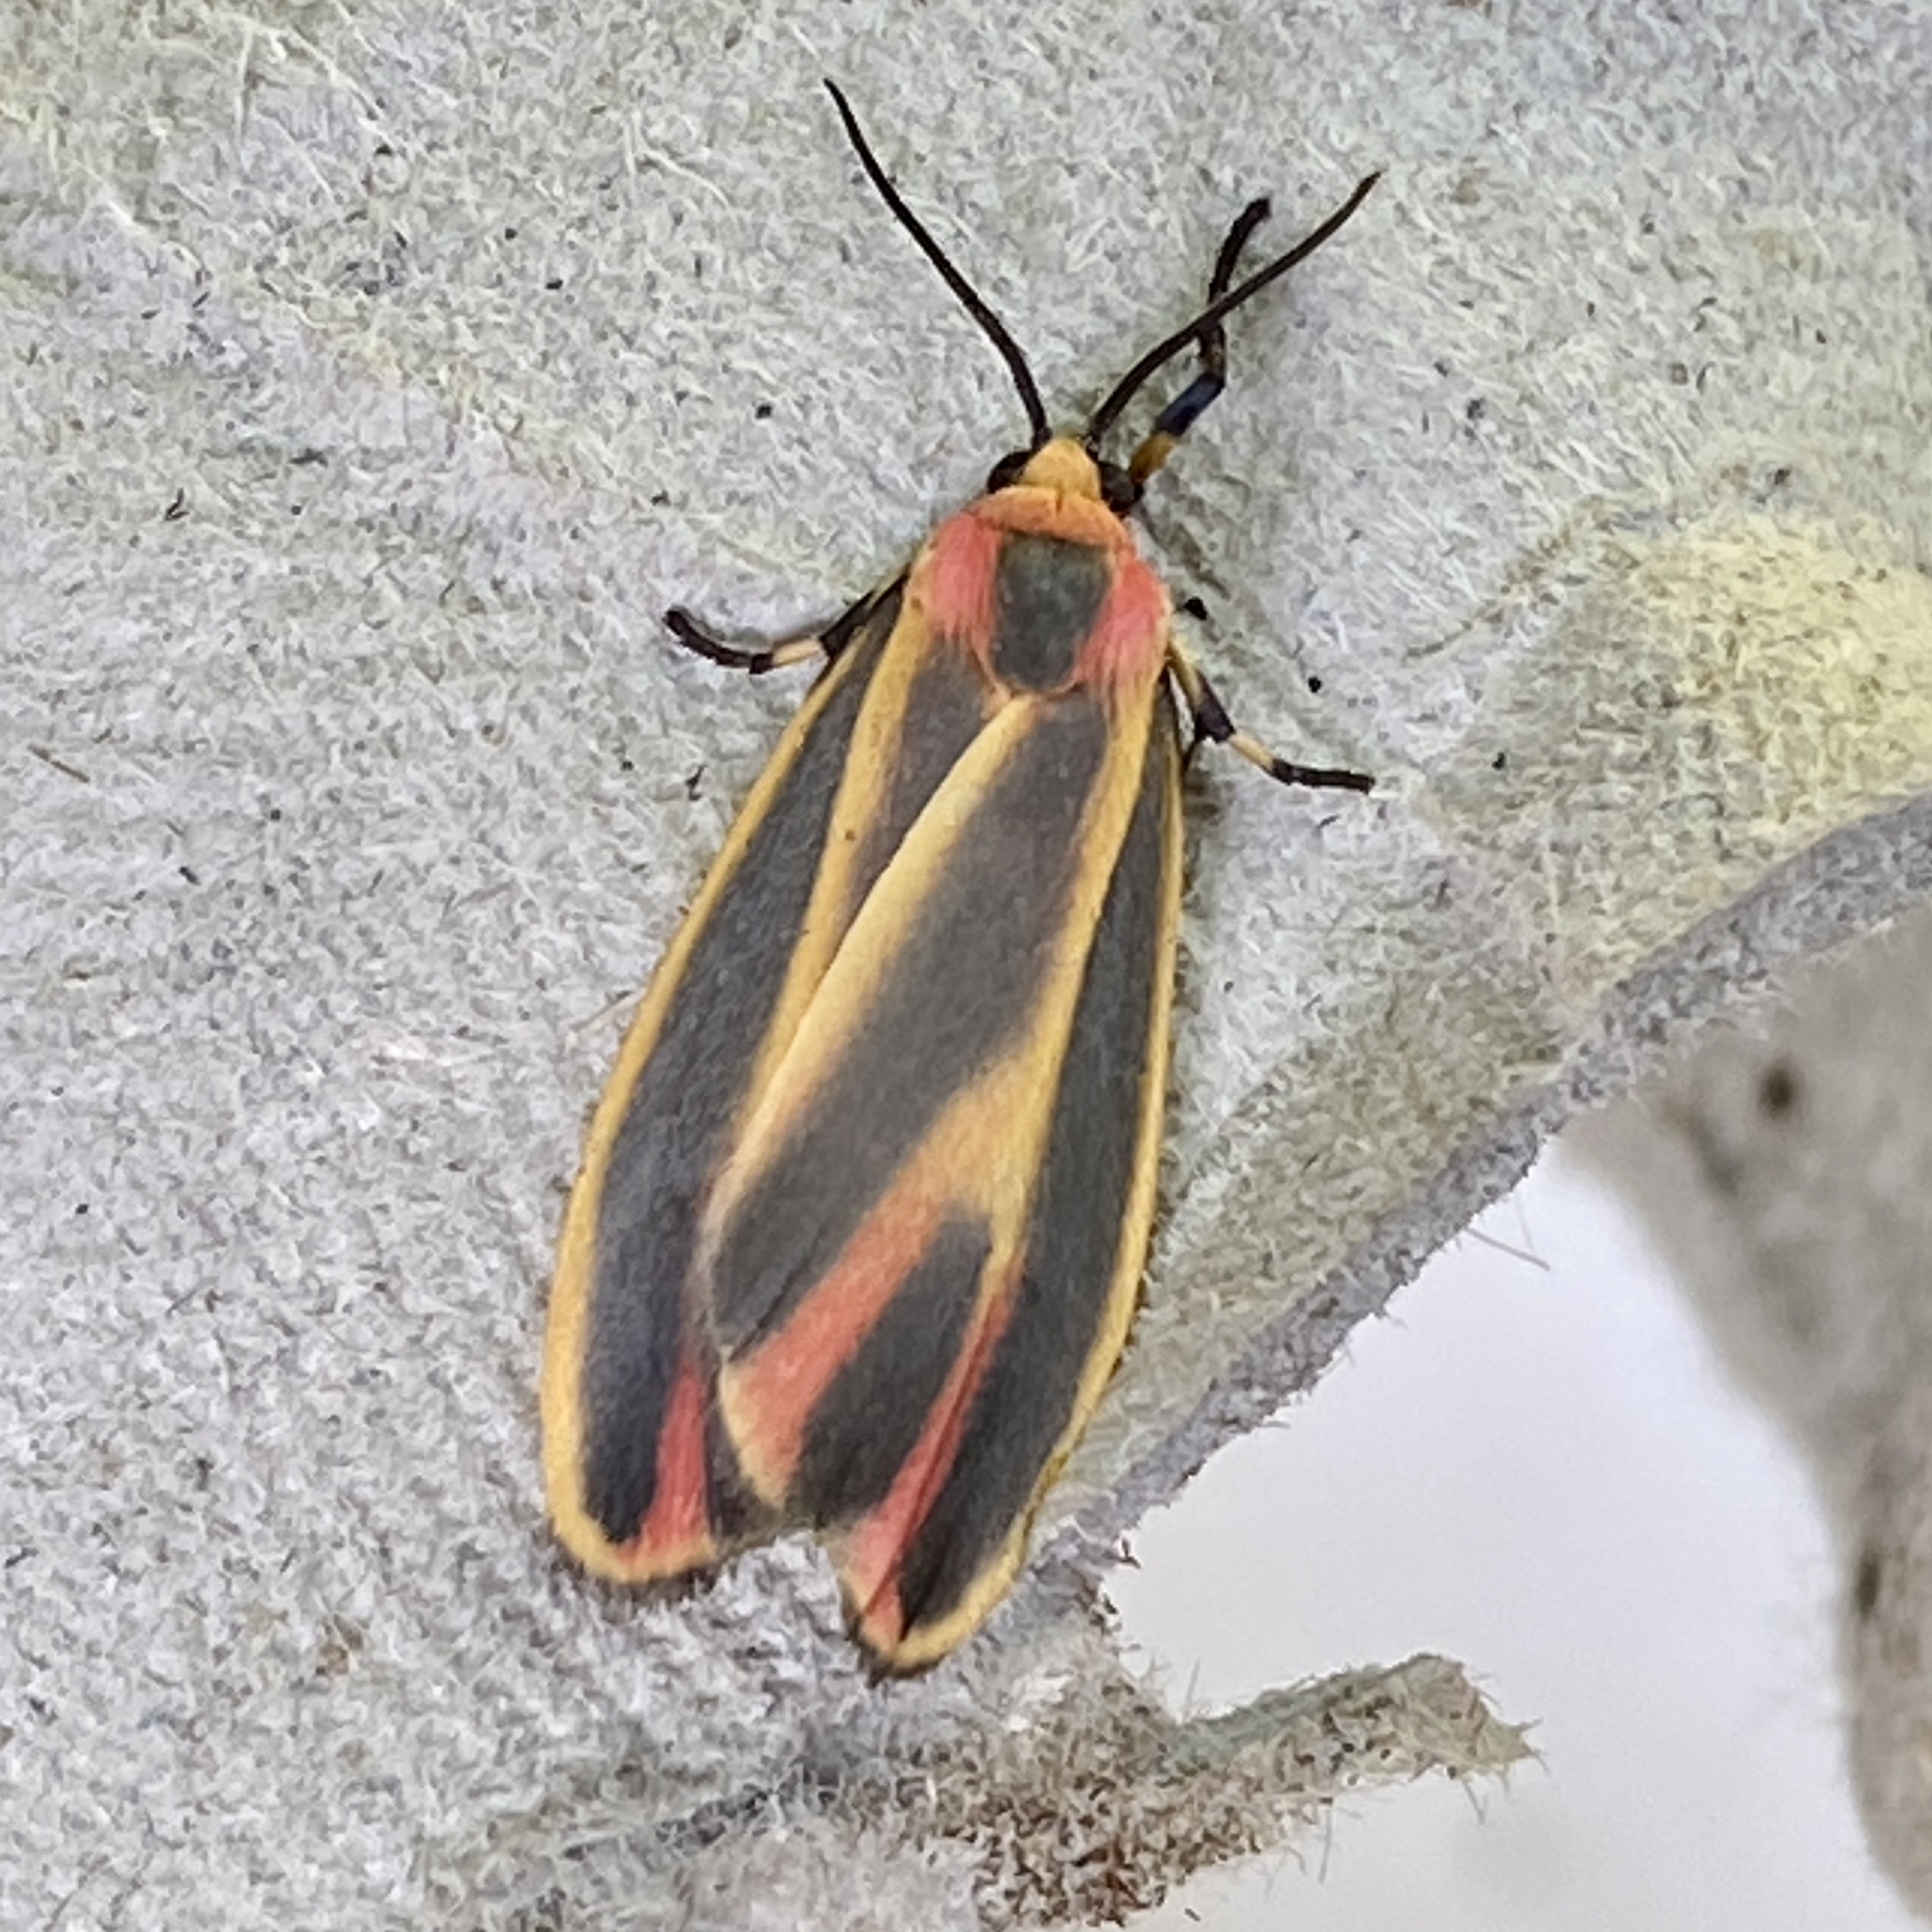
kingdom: Animalia
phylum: Arthropoda
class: Insecta
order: Lepidoptera
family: Erebidae
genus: Hypoprepia
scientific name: Hypoprepia fucosa
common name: Painted lichen moth
